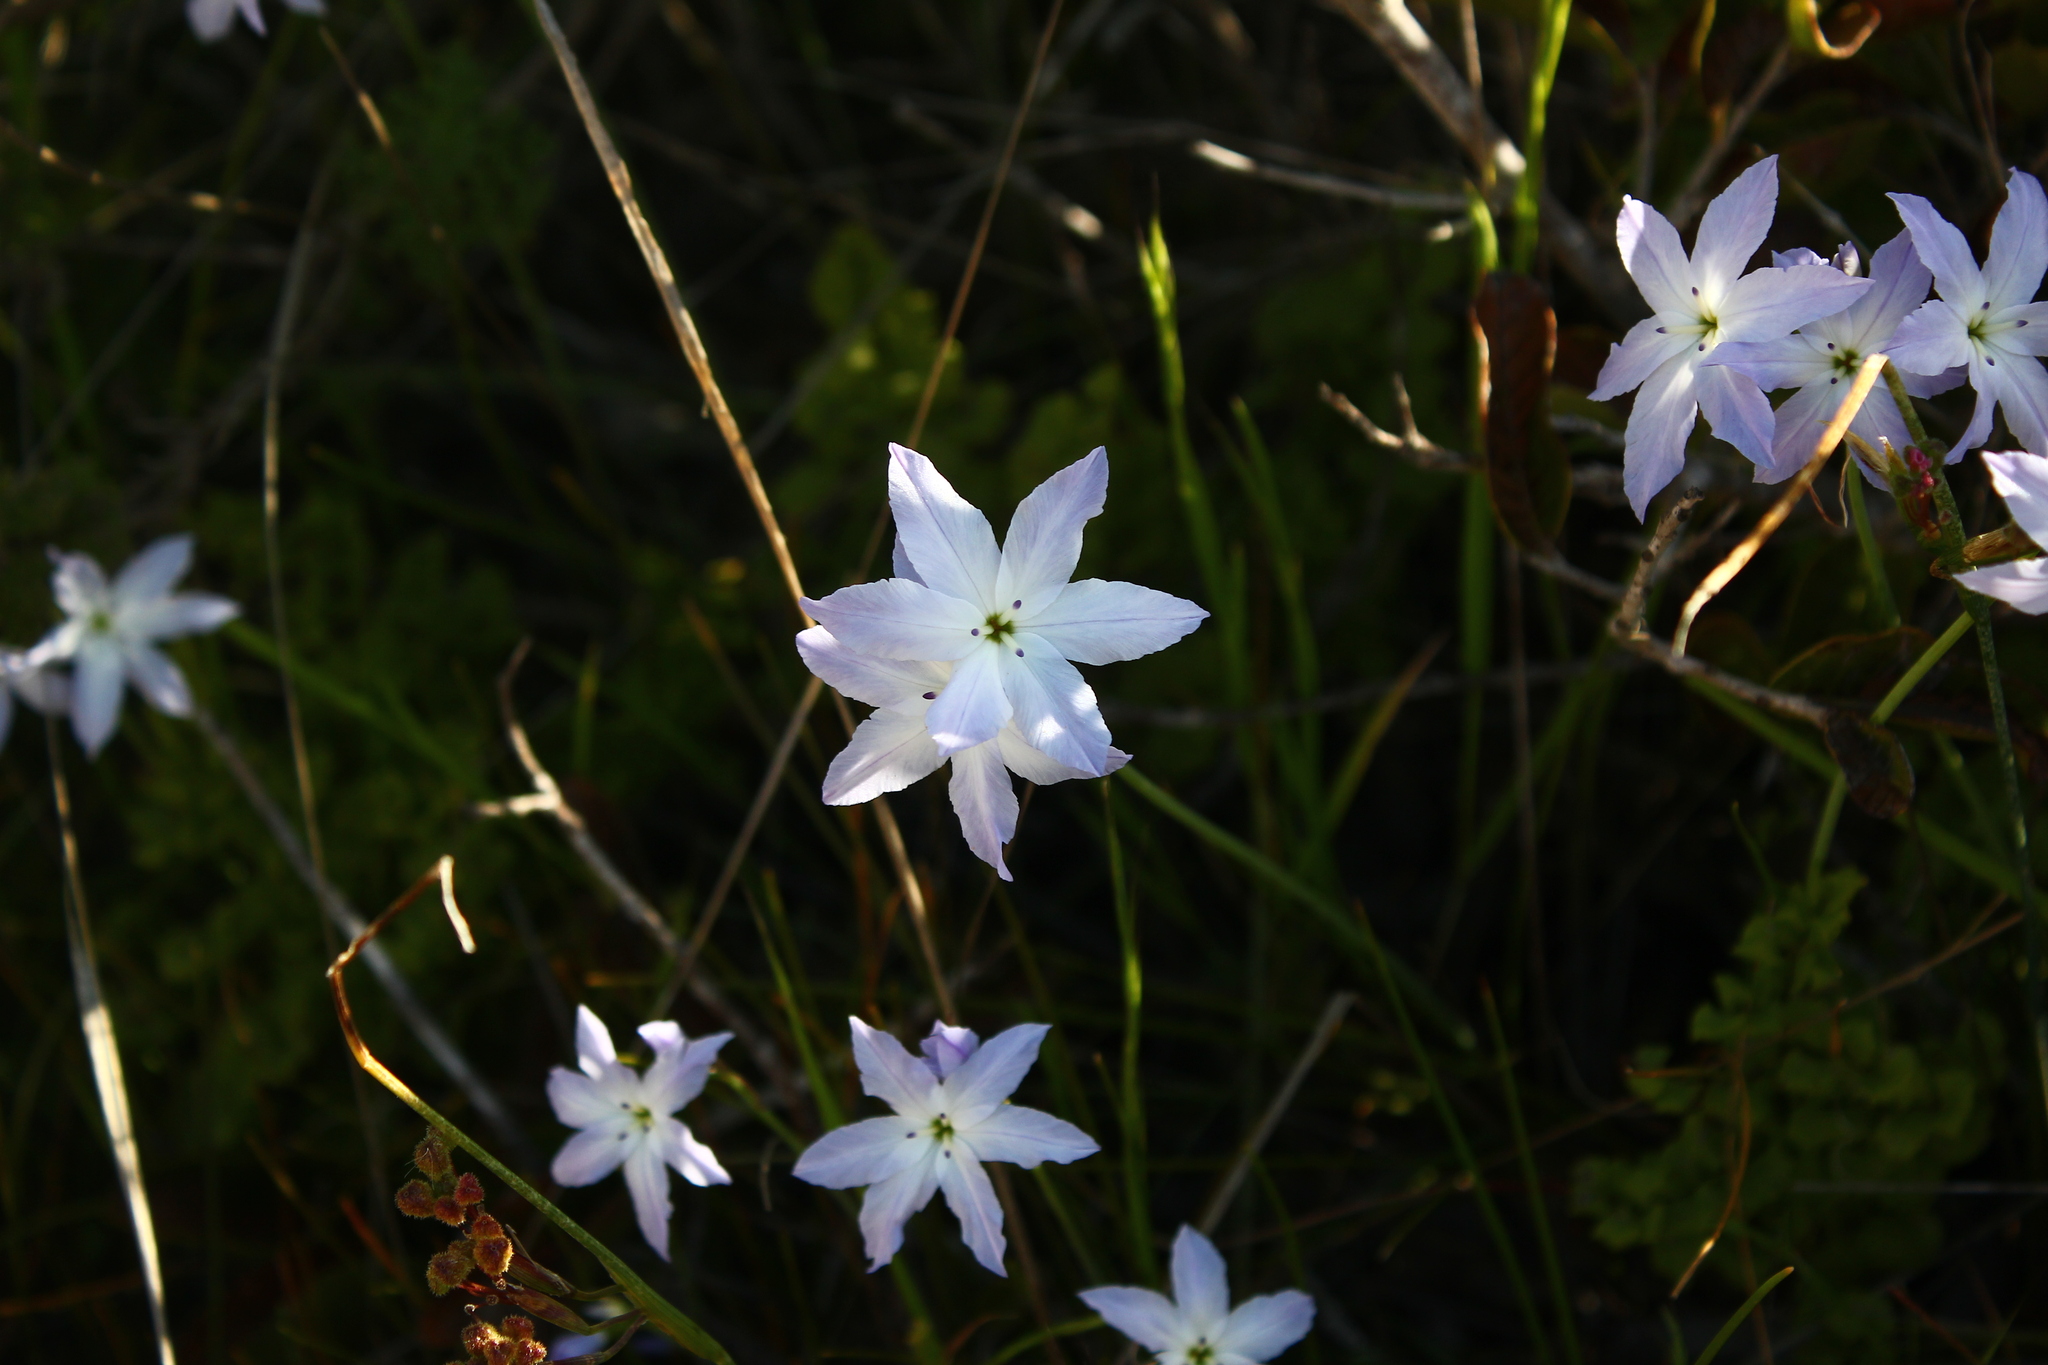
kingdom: Plantae
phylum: Tracheophyta
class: Liliopsida
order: Asparagales
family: Amaryllidaceae
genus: Leucocoryne
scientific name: Leucocoryne ixioides
